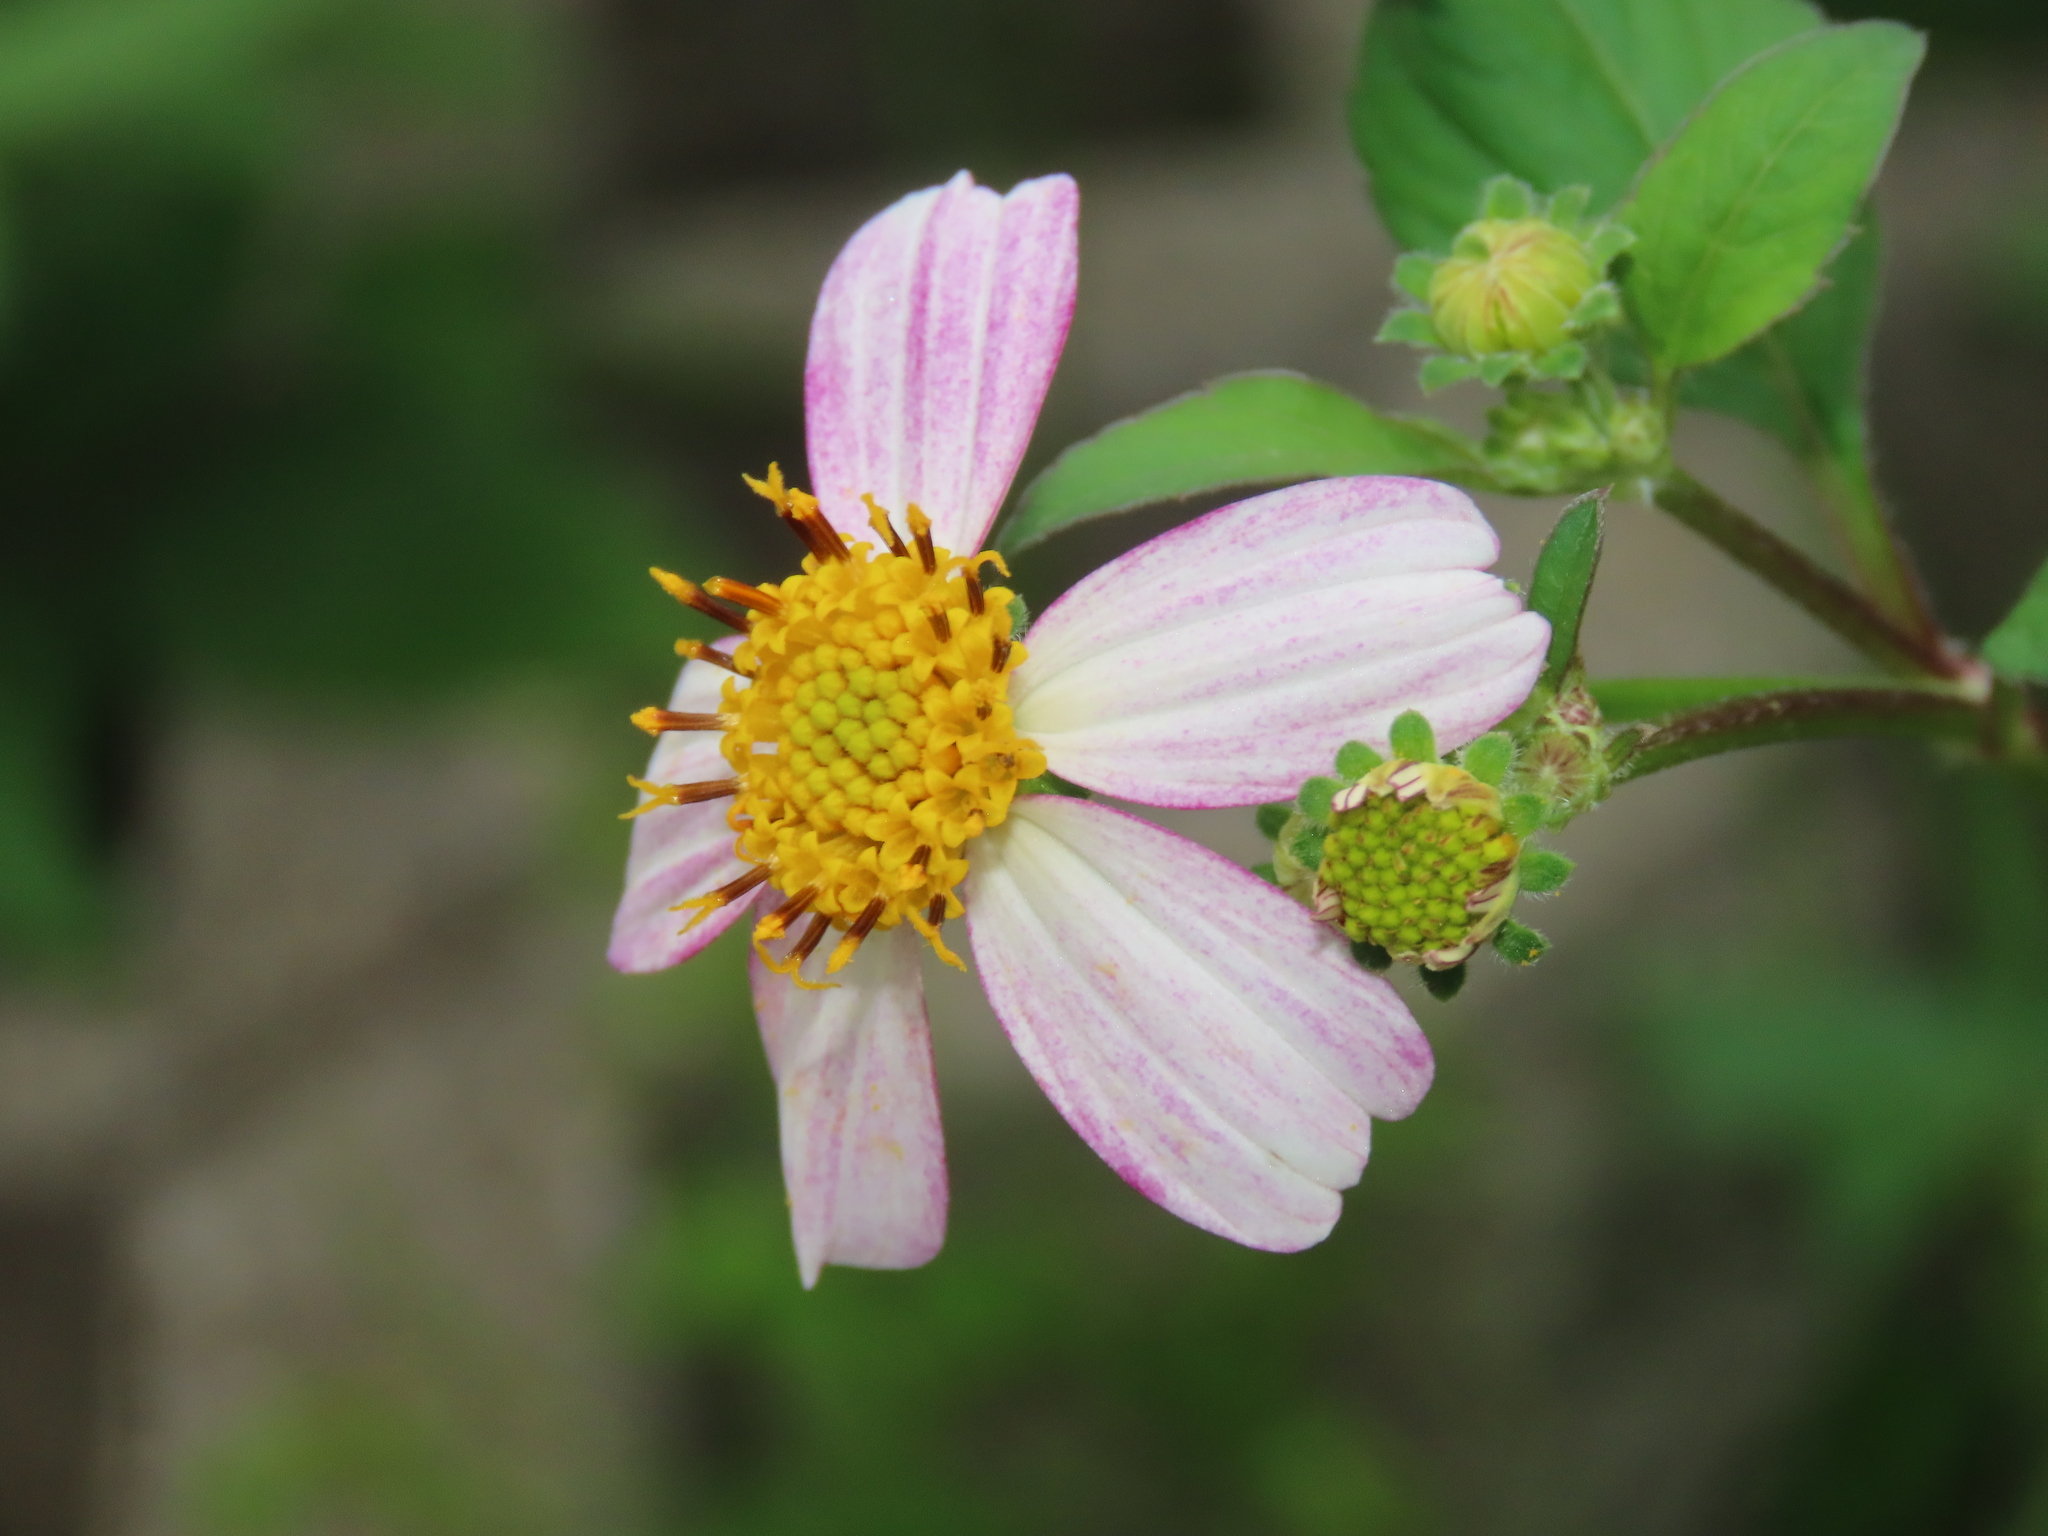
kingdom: Plantae
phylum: Tracheophyta
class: Magnoliopsida
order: Asterales
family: Asteraceae
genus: Bidens
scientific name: Bidens alba
